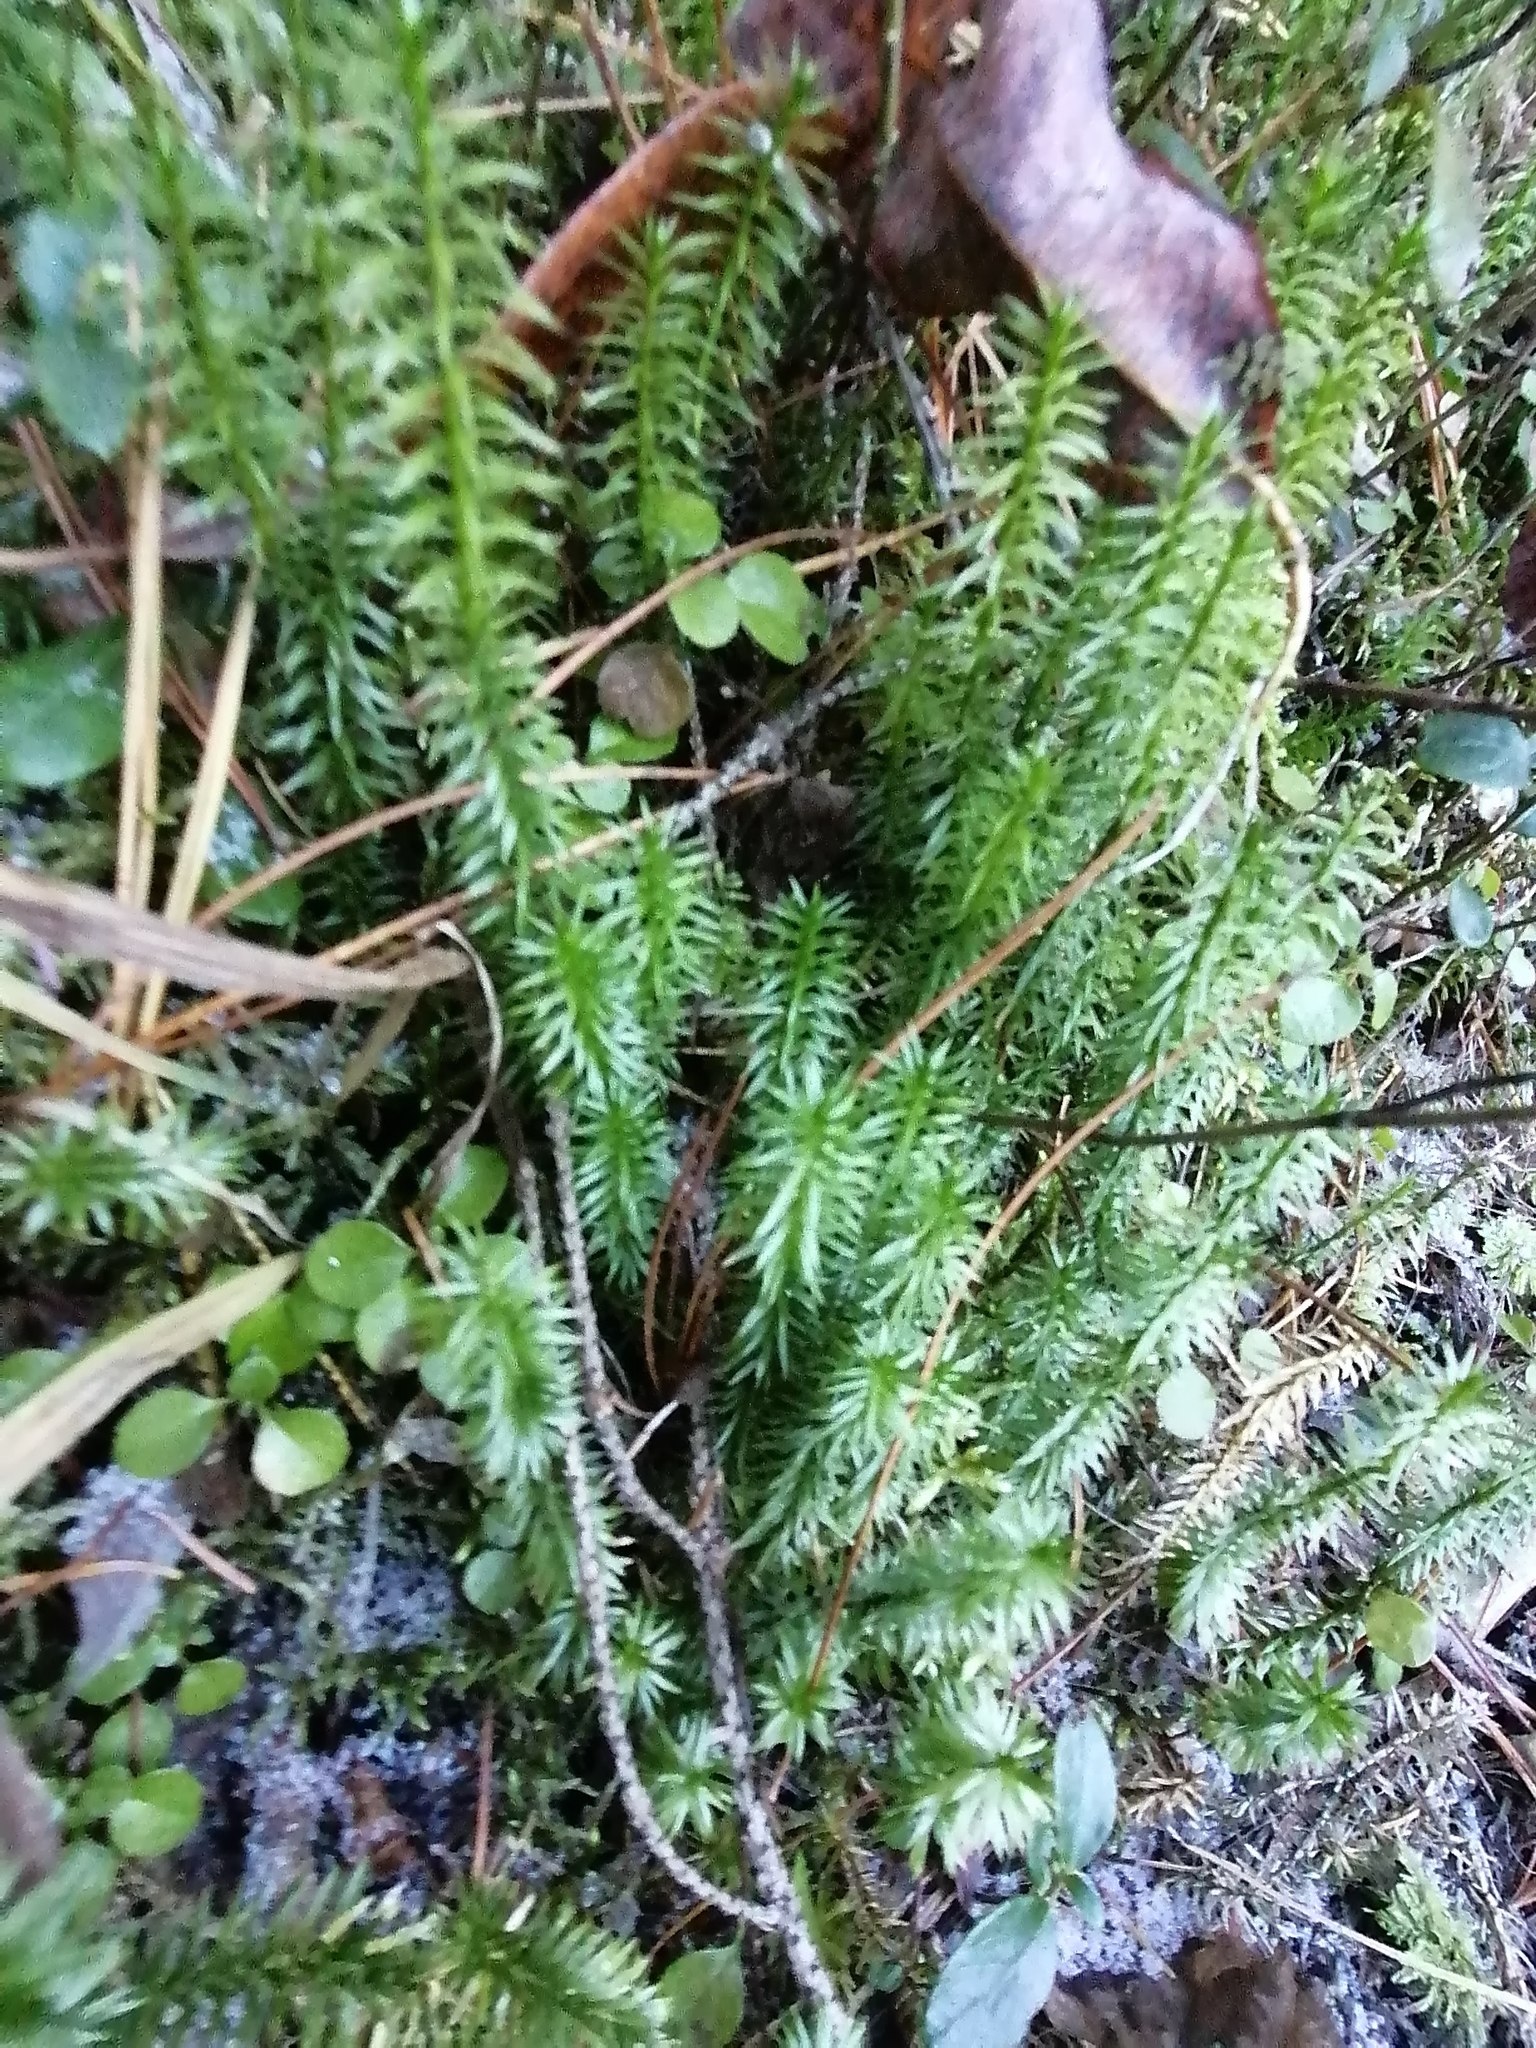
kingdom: Plantae
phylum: Tracheophyta
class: Lycopodiopsida
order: Lycopodiales
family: Lycopodiaceae
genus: Spinulum
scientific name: Spinulum annotinum
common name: Interrupted club-moss
